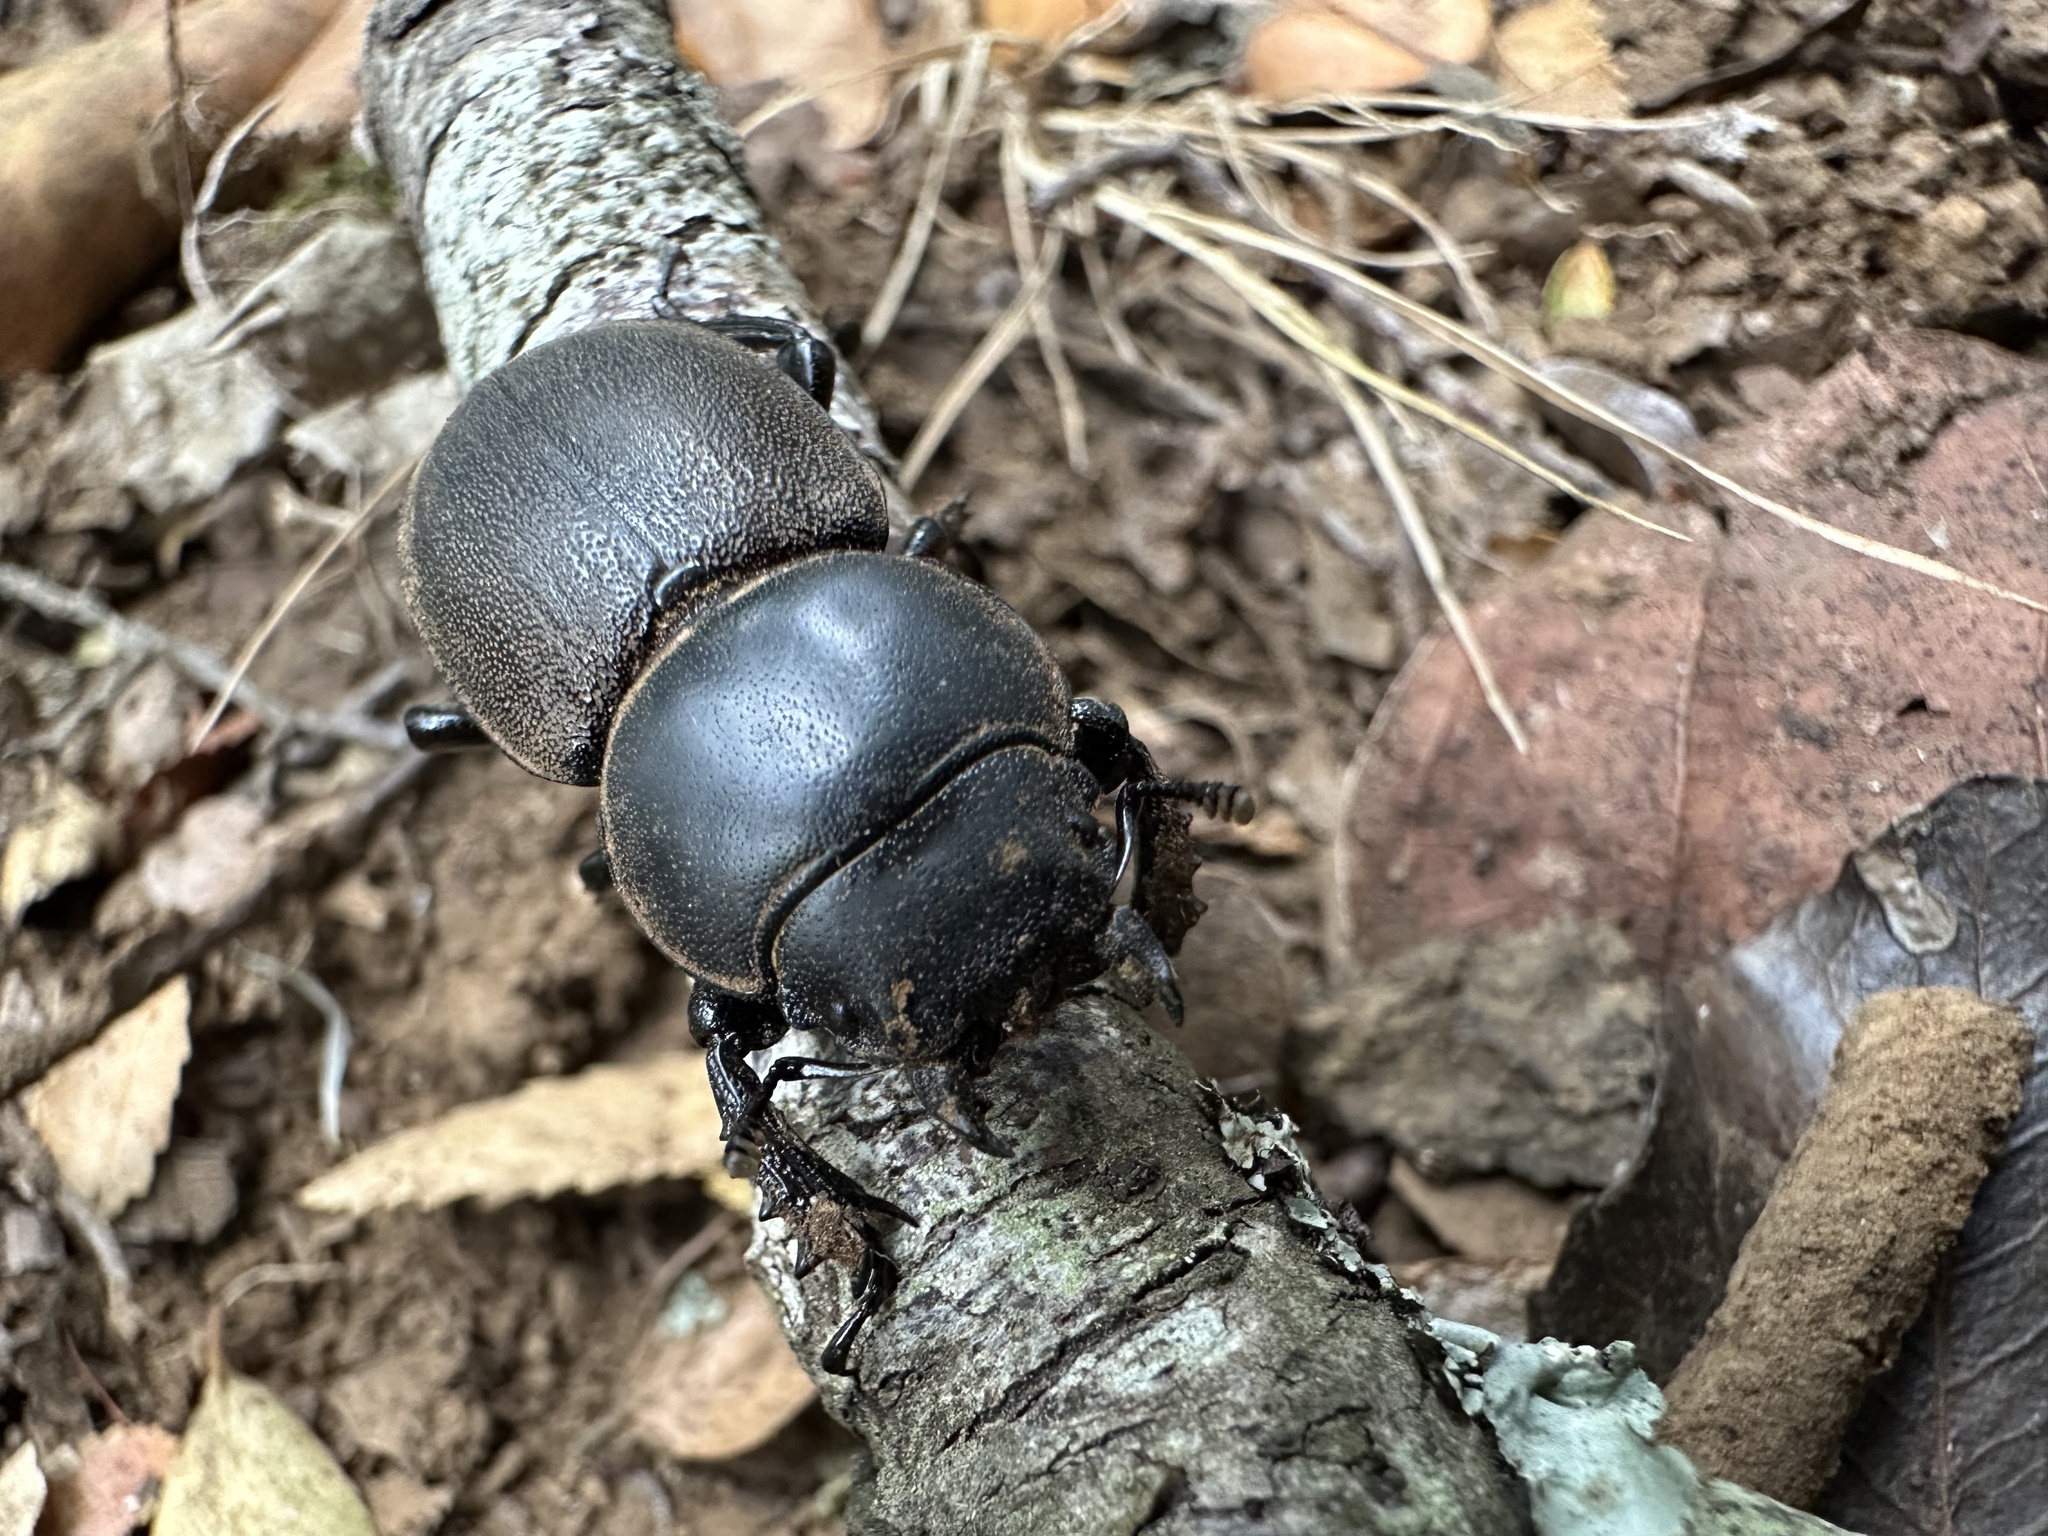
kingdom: Animalia
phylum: Arthropoda
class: Insecta
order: Coleoptera
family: Lucanidae
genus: Apterodorcus
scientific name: Apterodorcus bacchus
